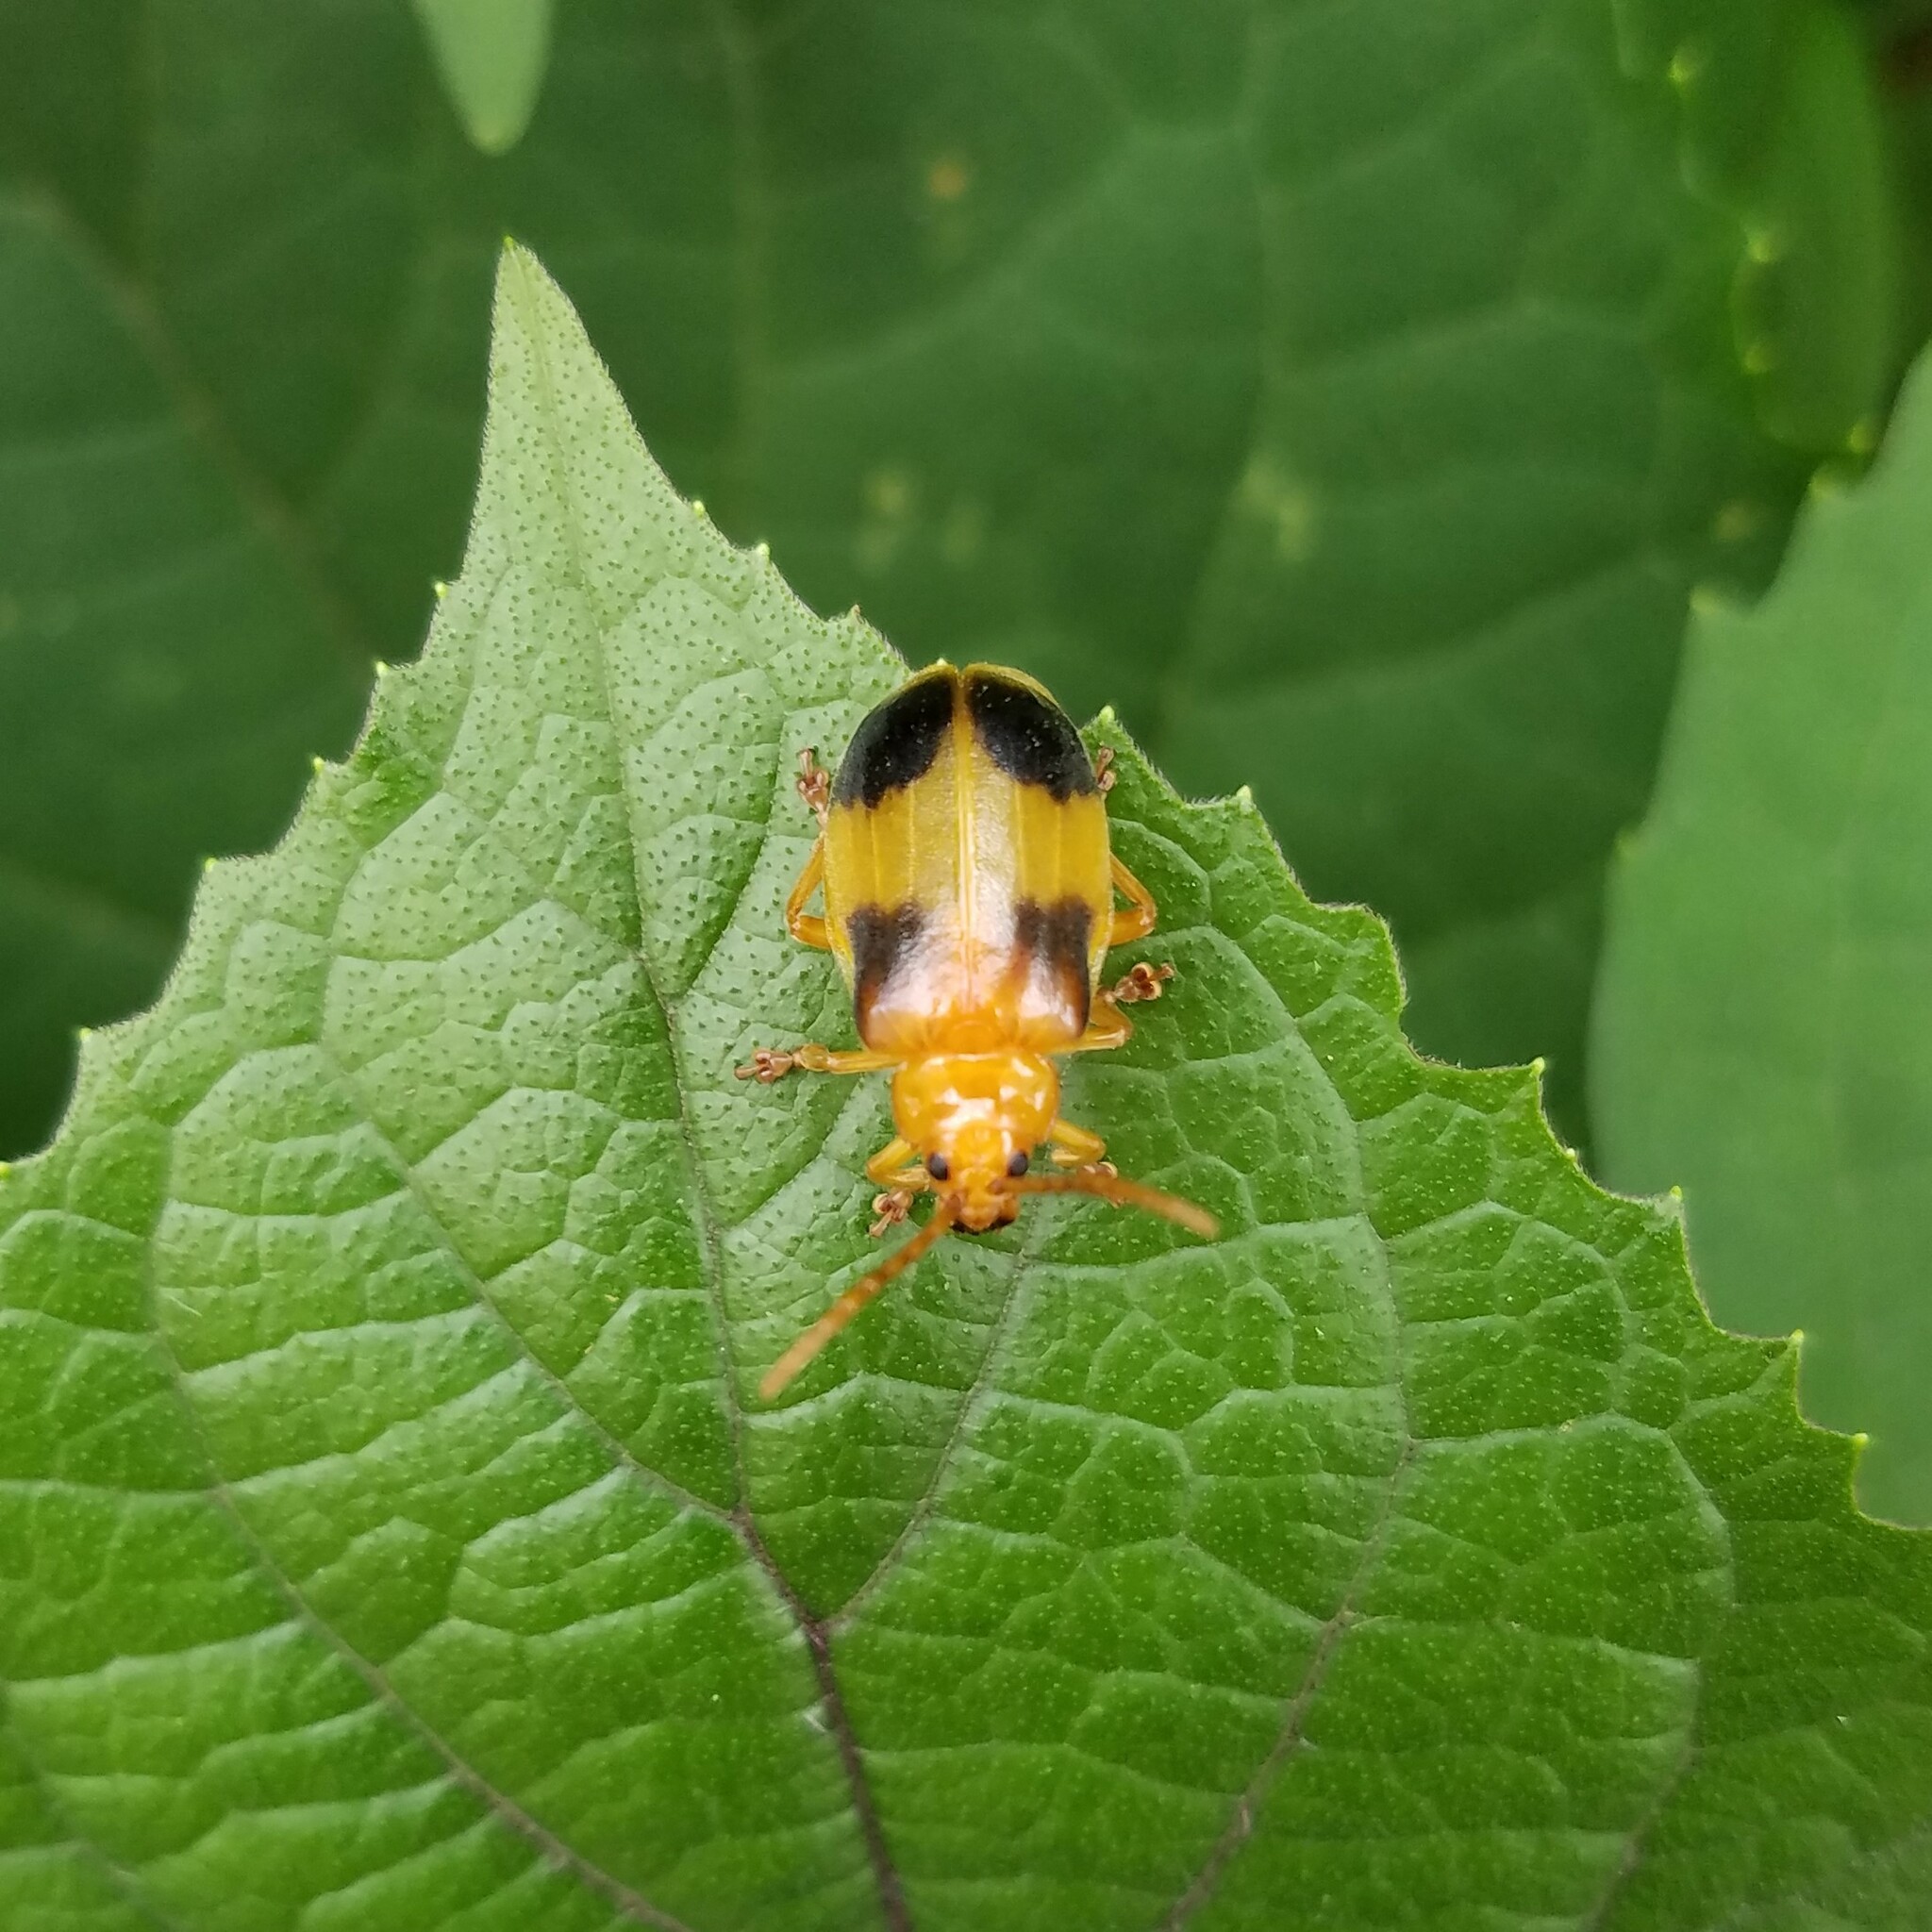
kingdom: Animalia
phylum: Arthropoda
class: Insecta
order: Coleoptera
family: Chrysomelidae
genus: Monocesta
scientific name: Monocesta coryli
